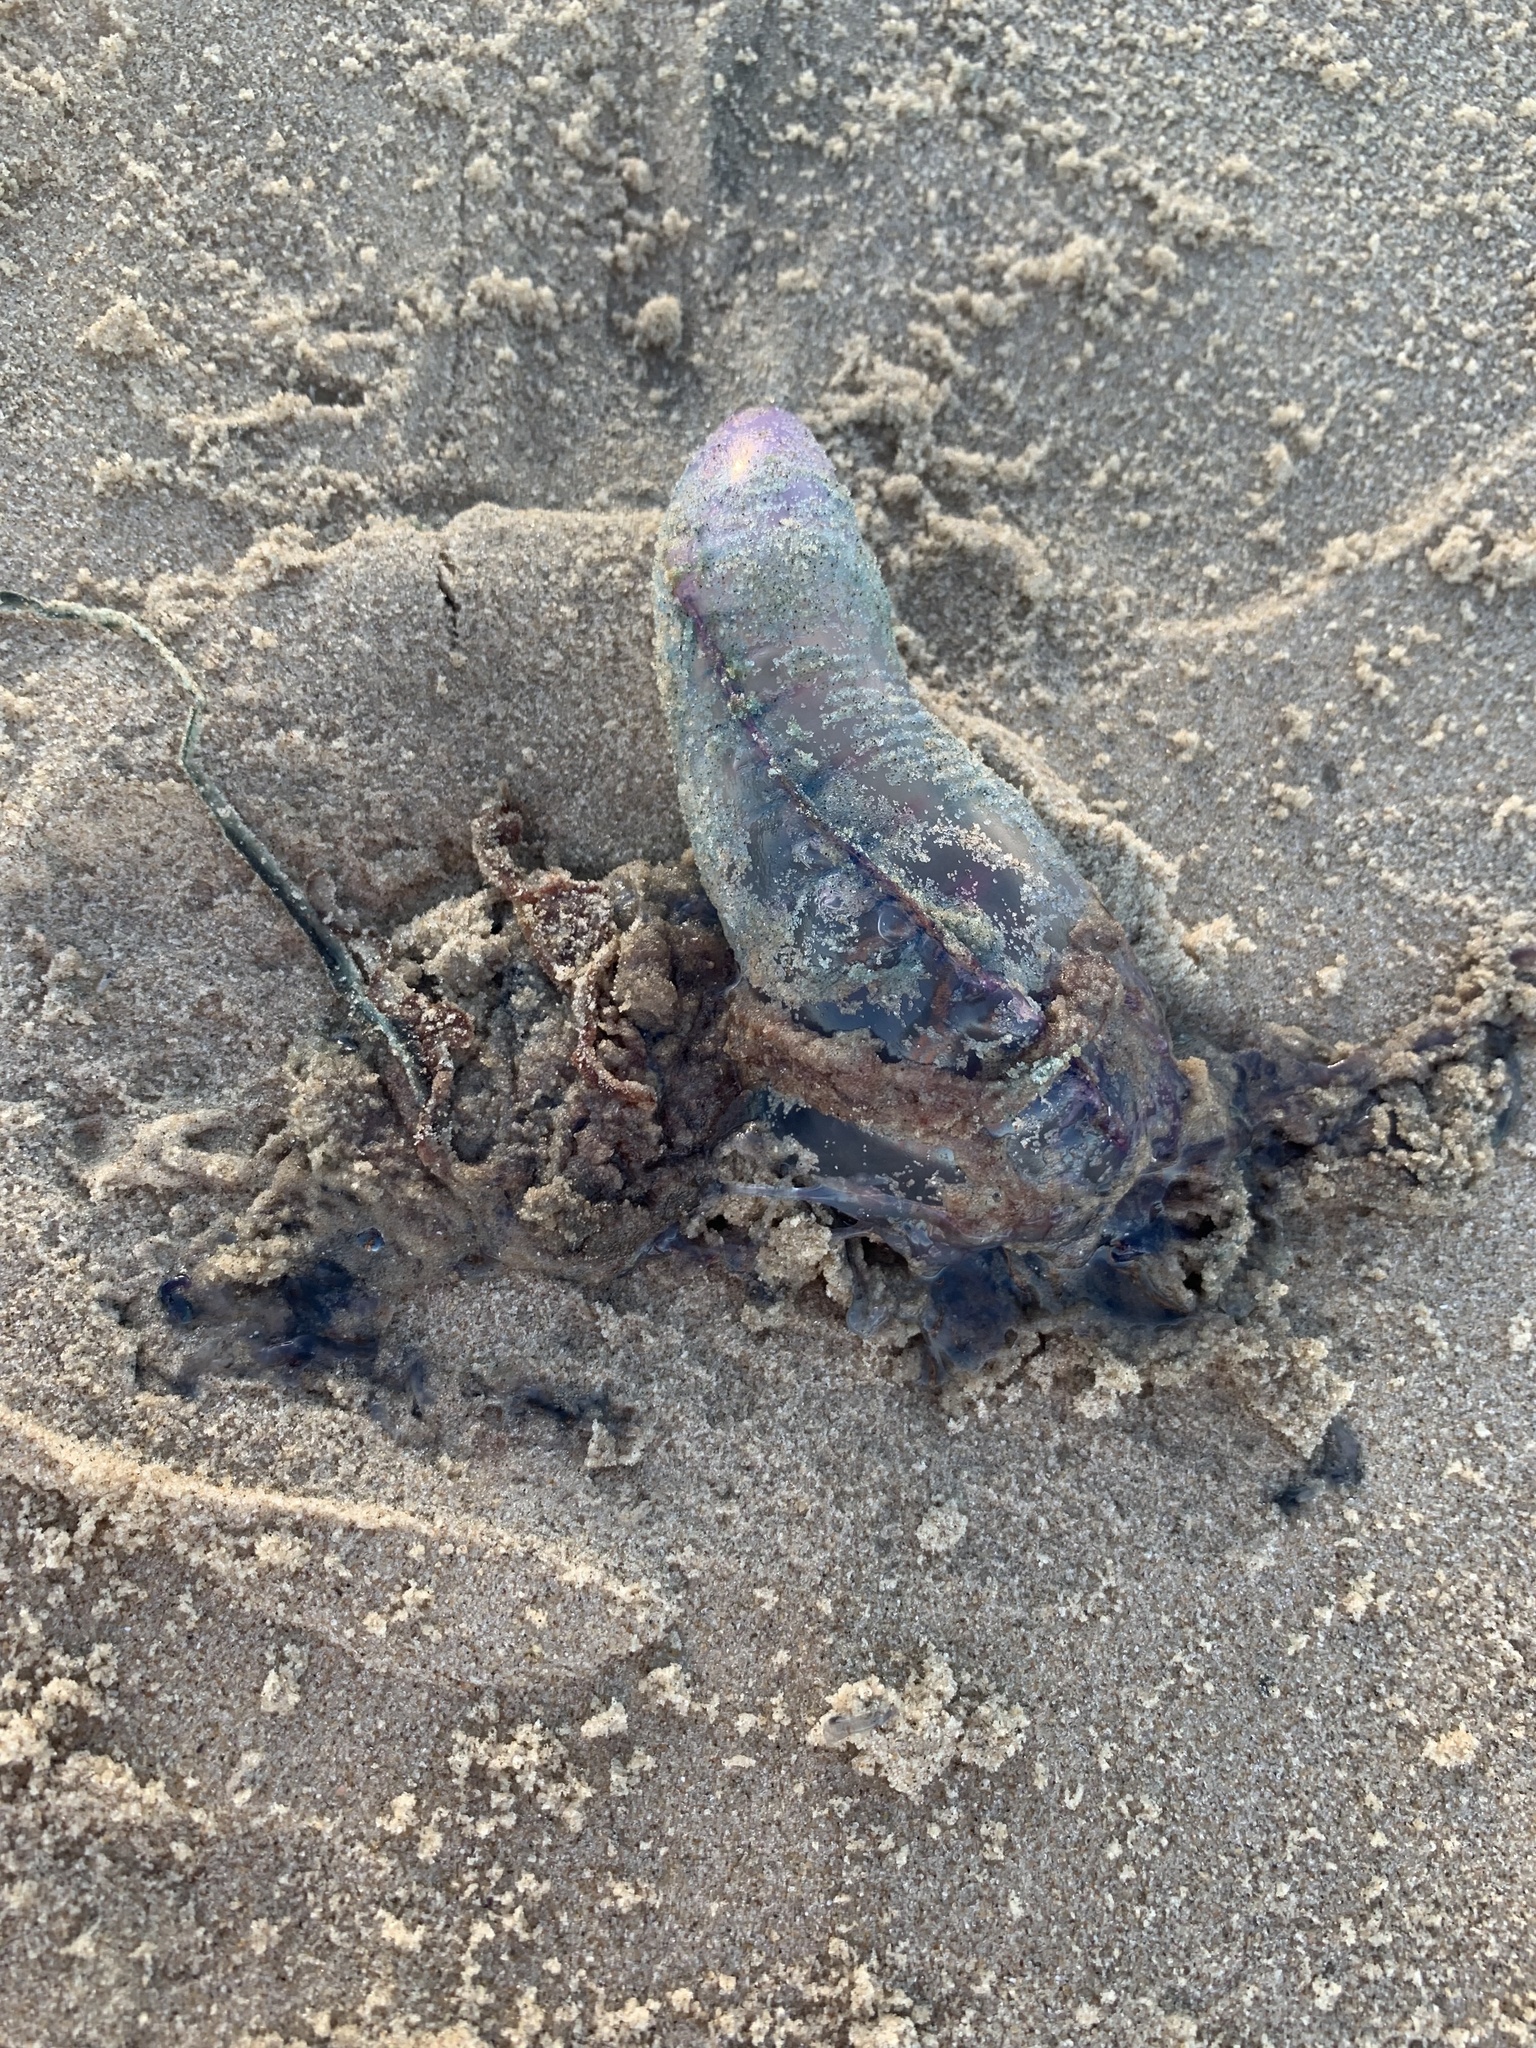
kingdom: Animalia
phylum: Cnidaria
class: Hydrozoa
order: Siphonophorae
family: Physaliidae
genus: Physalia
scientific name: Physalia physalis
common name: Portuguese man-of-war
